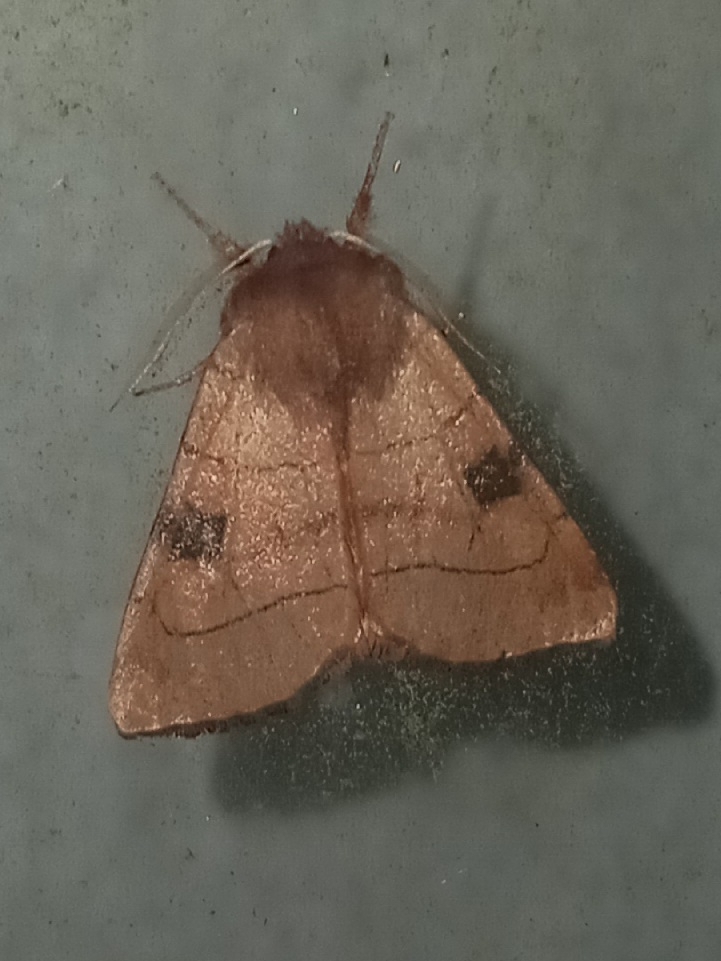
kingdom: Animalia
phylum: Arthropoda
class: Insecta
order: Lepidoptera
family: Noctuidae
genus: Choephora
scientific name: Choephora fungorum
